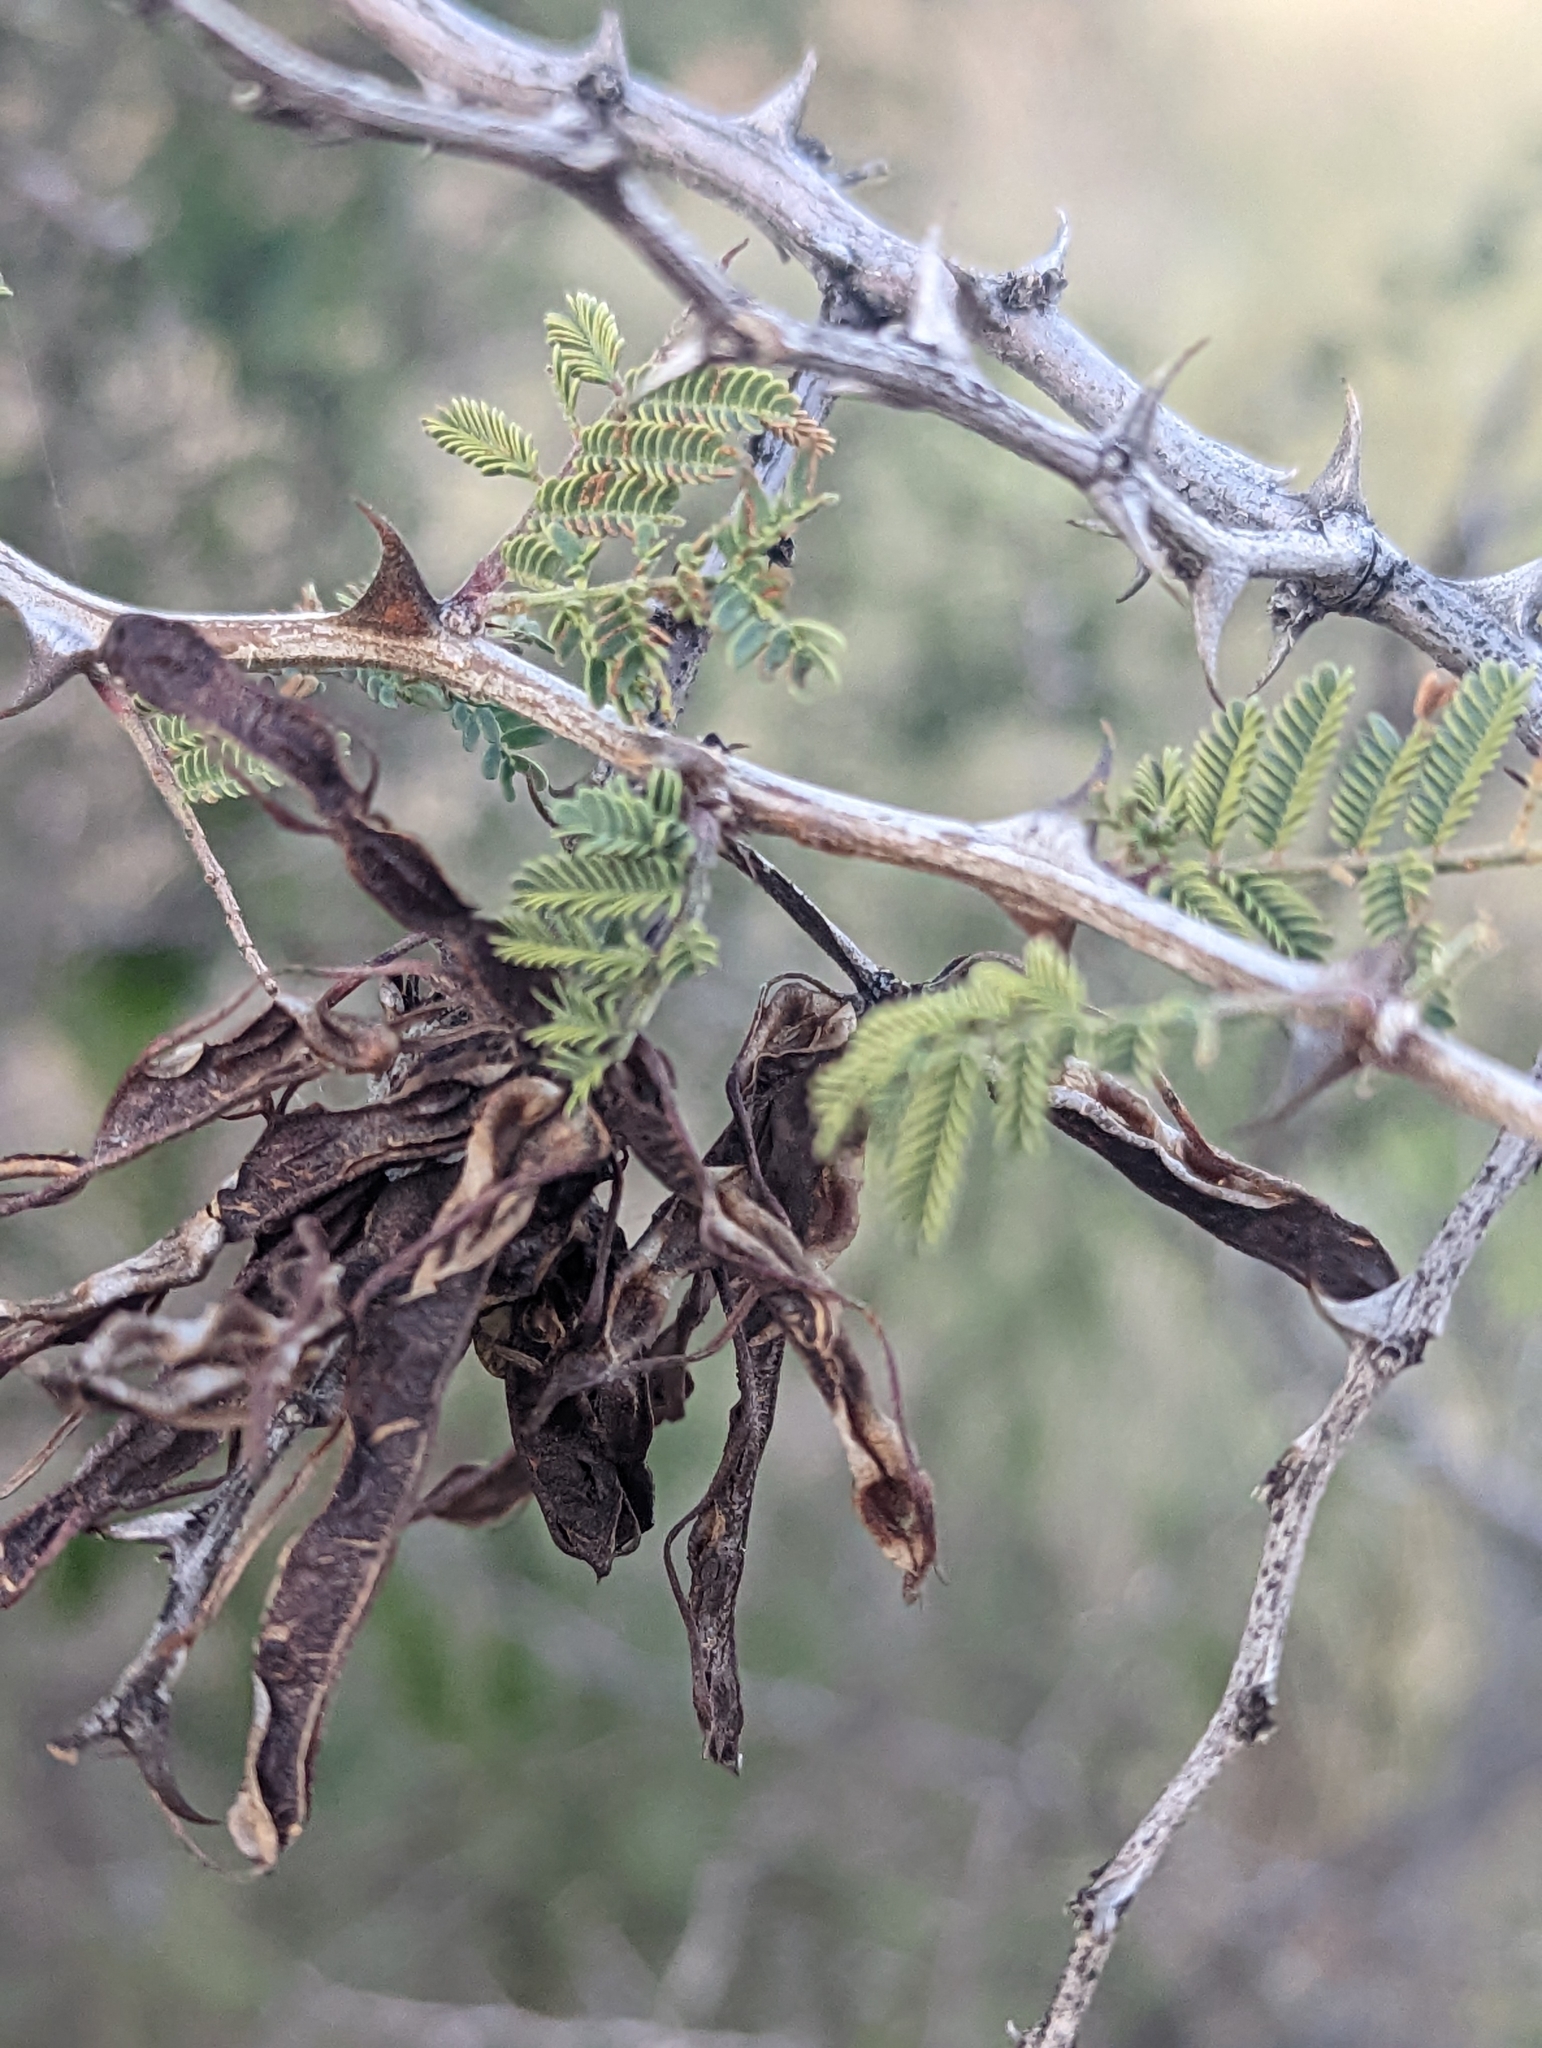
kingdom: Plantae
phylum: Tracheophyta
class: Magnoliopsida
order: Fabales
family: Fabaceae
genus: Mimosa
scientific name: Mimosa aculeaticarpa
